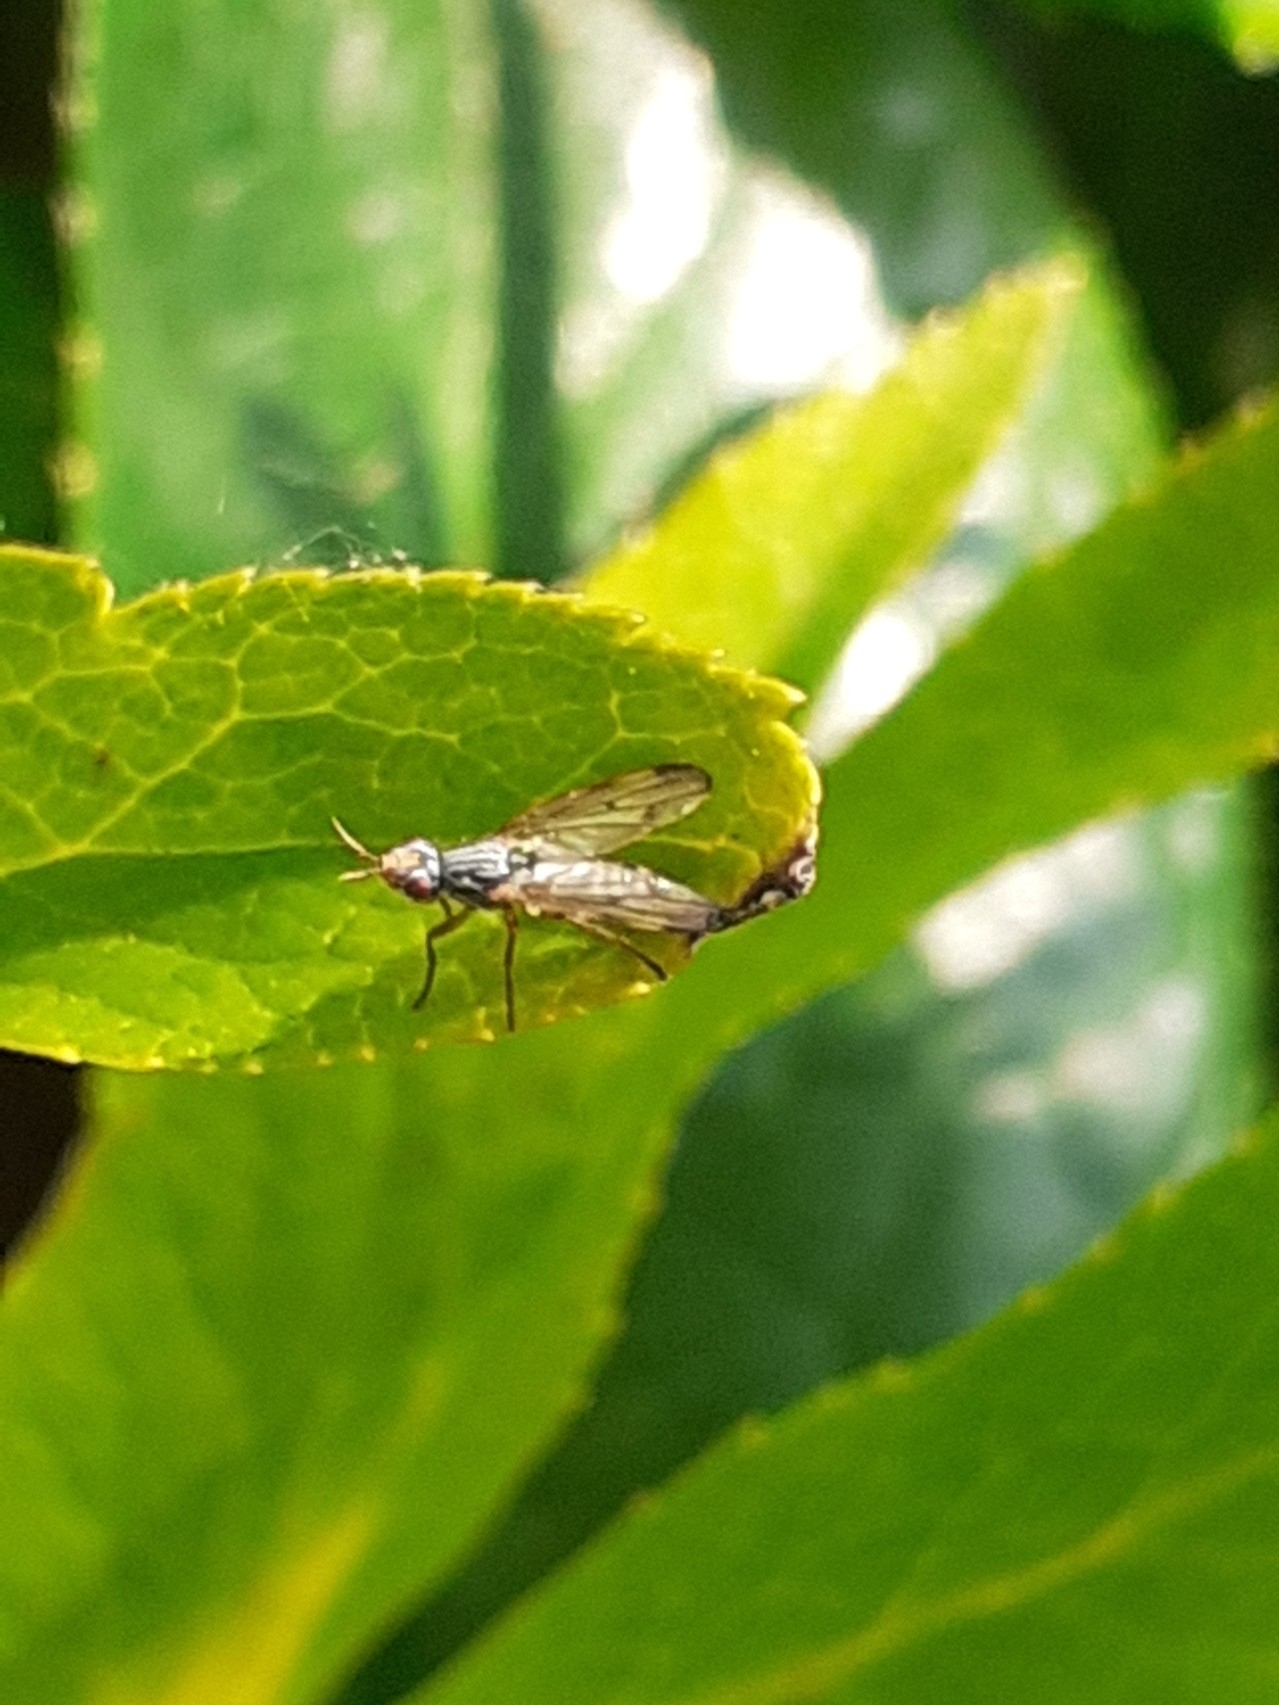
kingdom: Animalia
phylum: Arthropoda
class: Insecta
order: Diptera
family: Ulidiidae
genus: Dorycera
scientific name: Dorycera aquatica
